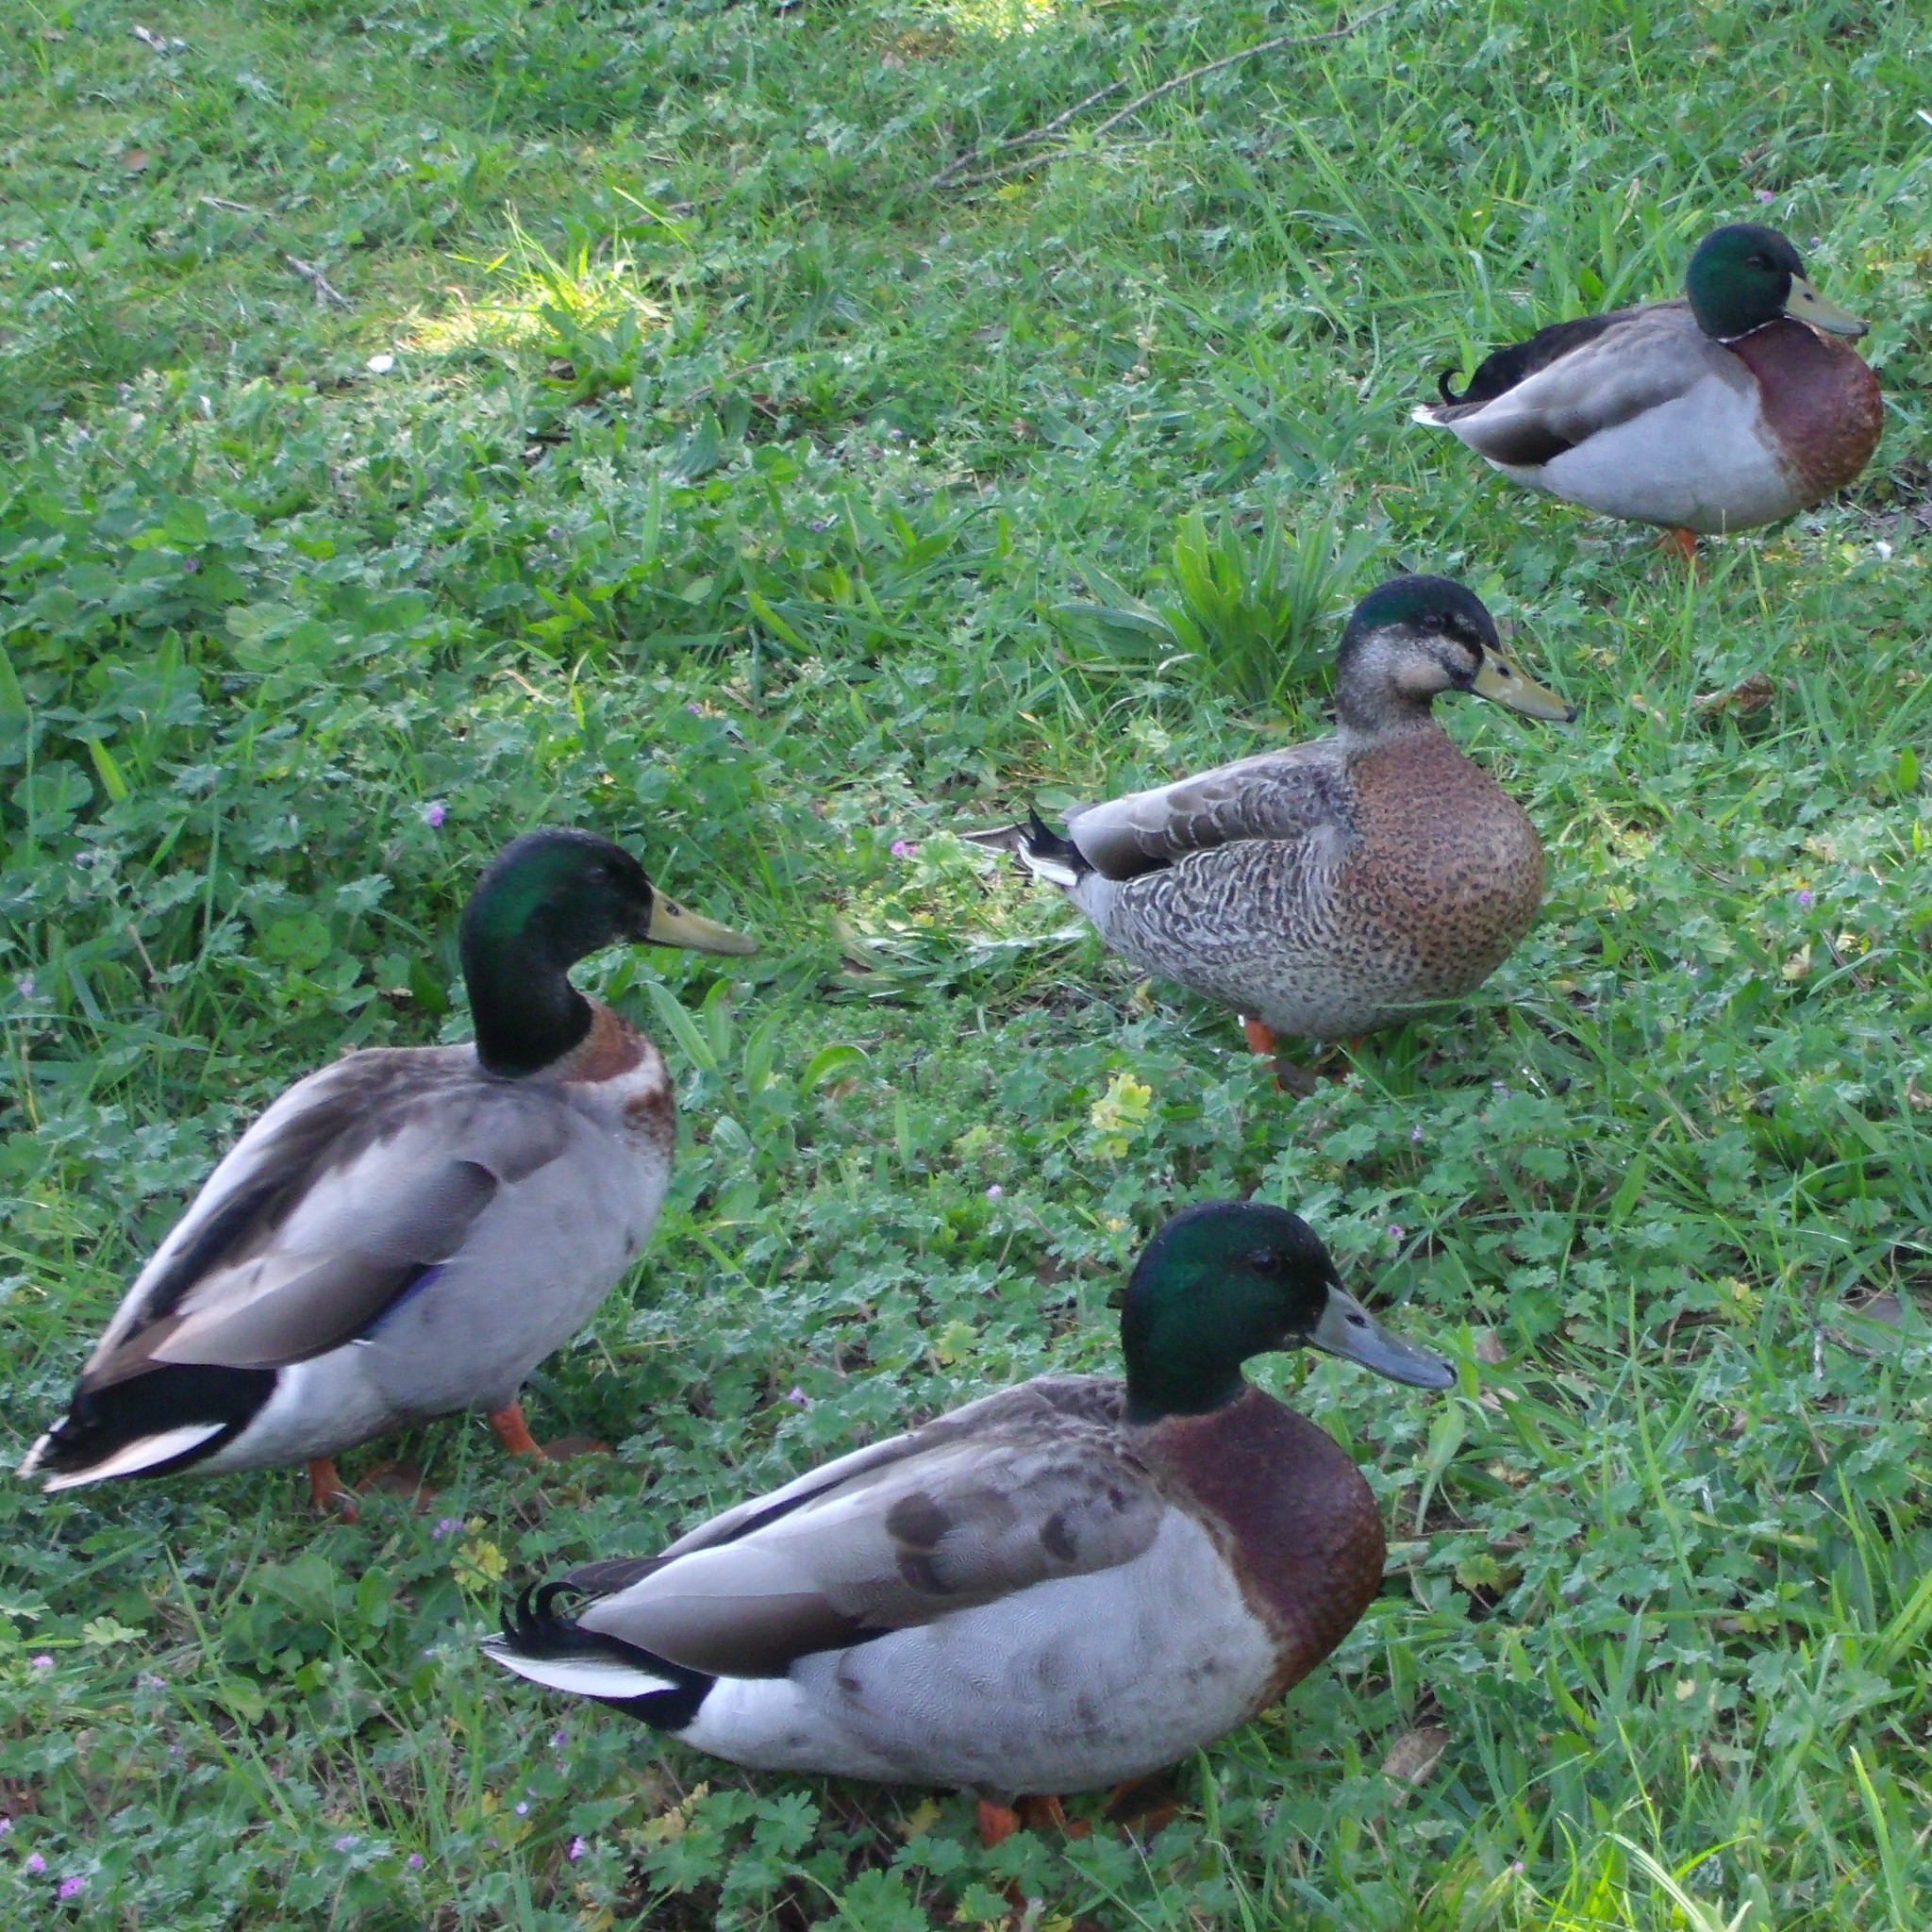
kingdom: Animalia
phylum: Chordata
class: Aves
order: Anseriformes
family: Anatidae
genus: Anas
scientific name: Anas
